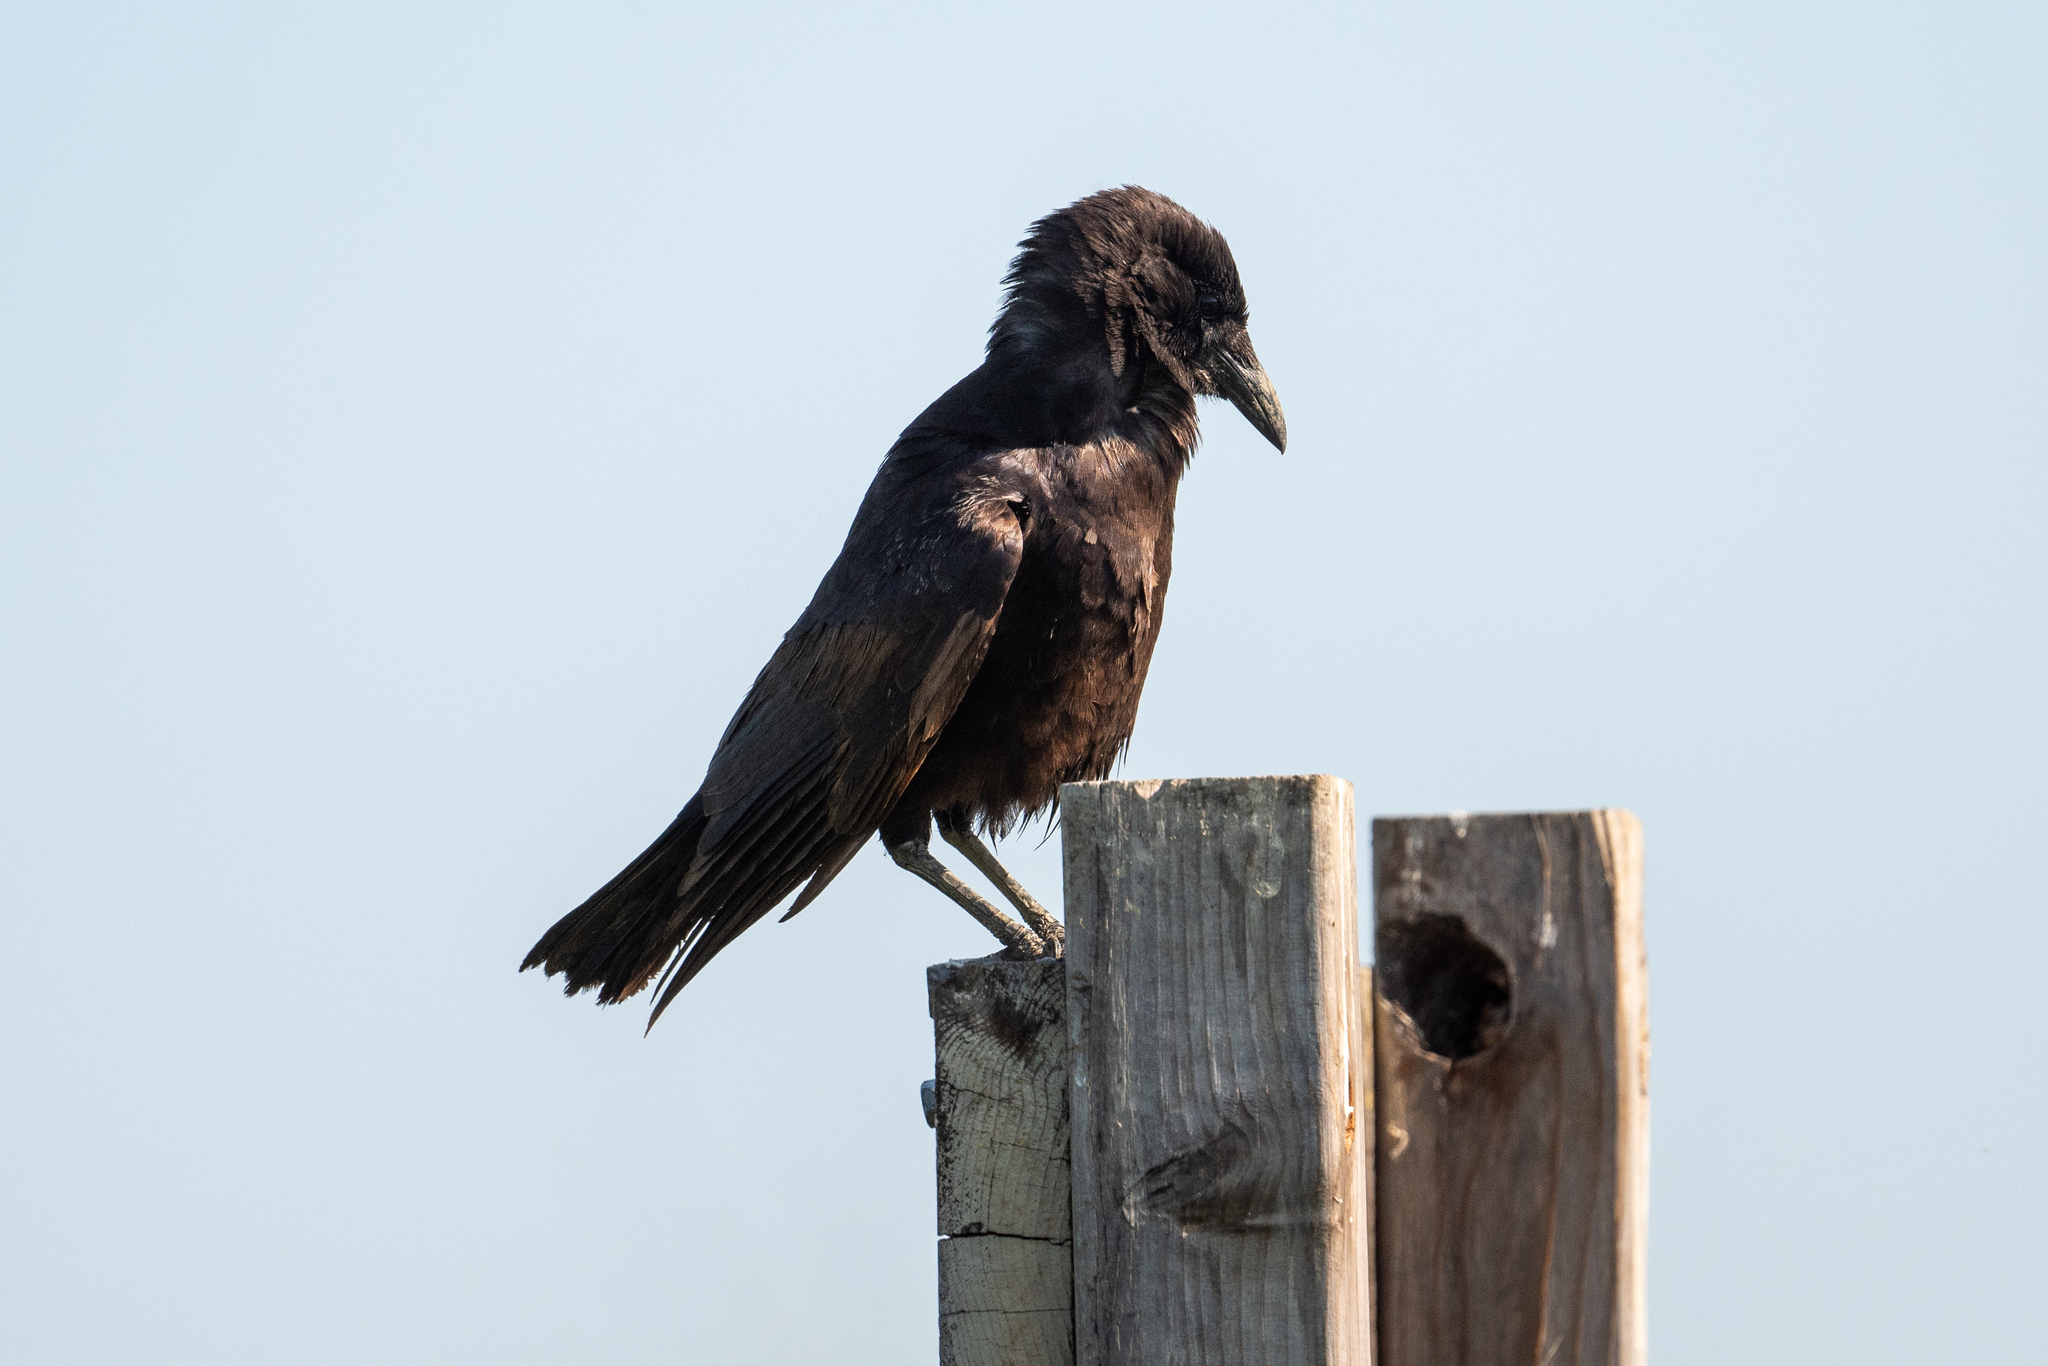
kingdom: Animalia
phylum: Chordata
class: Aves
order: Passeriformes
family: Corvidae
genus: Corvus
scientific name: Corvus corax
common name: Common raven
